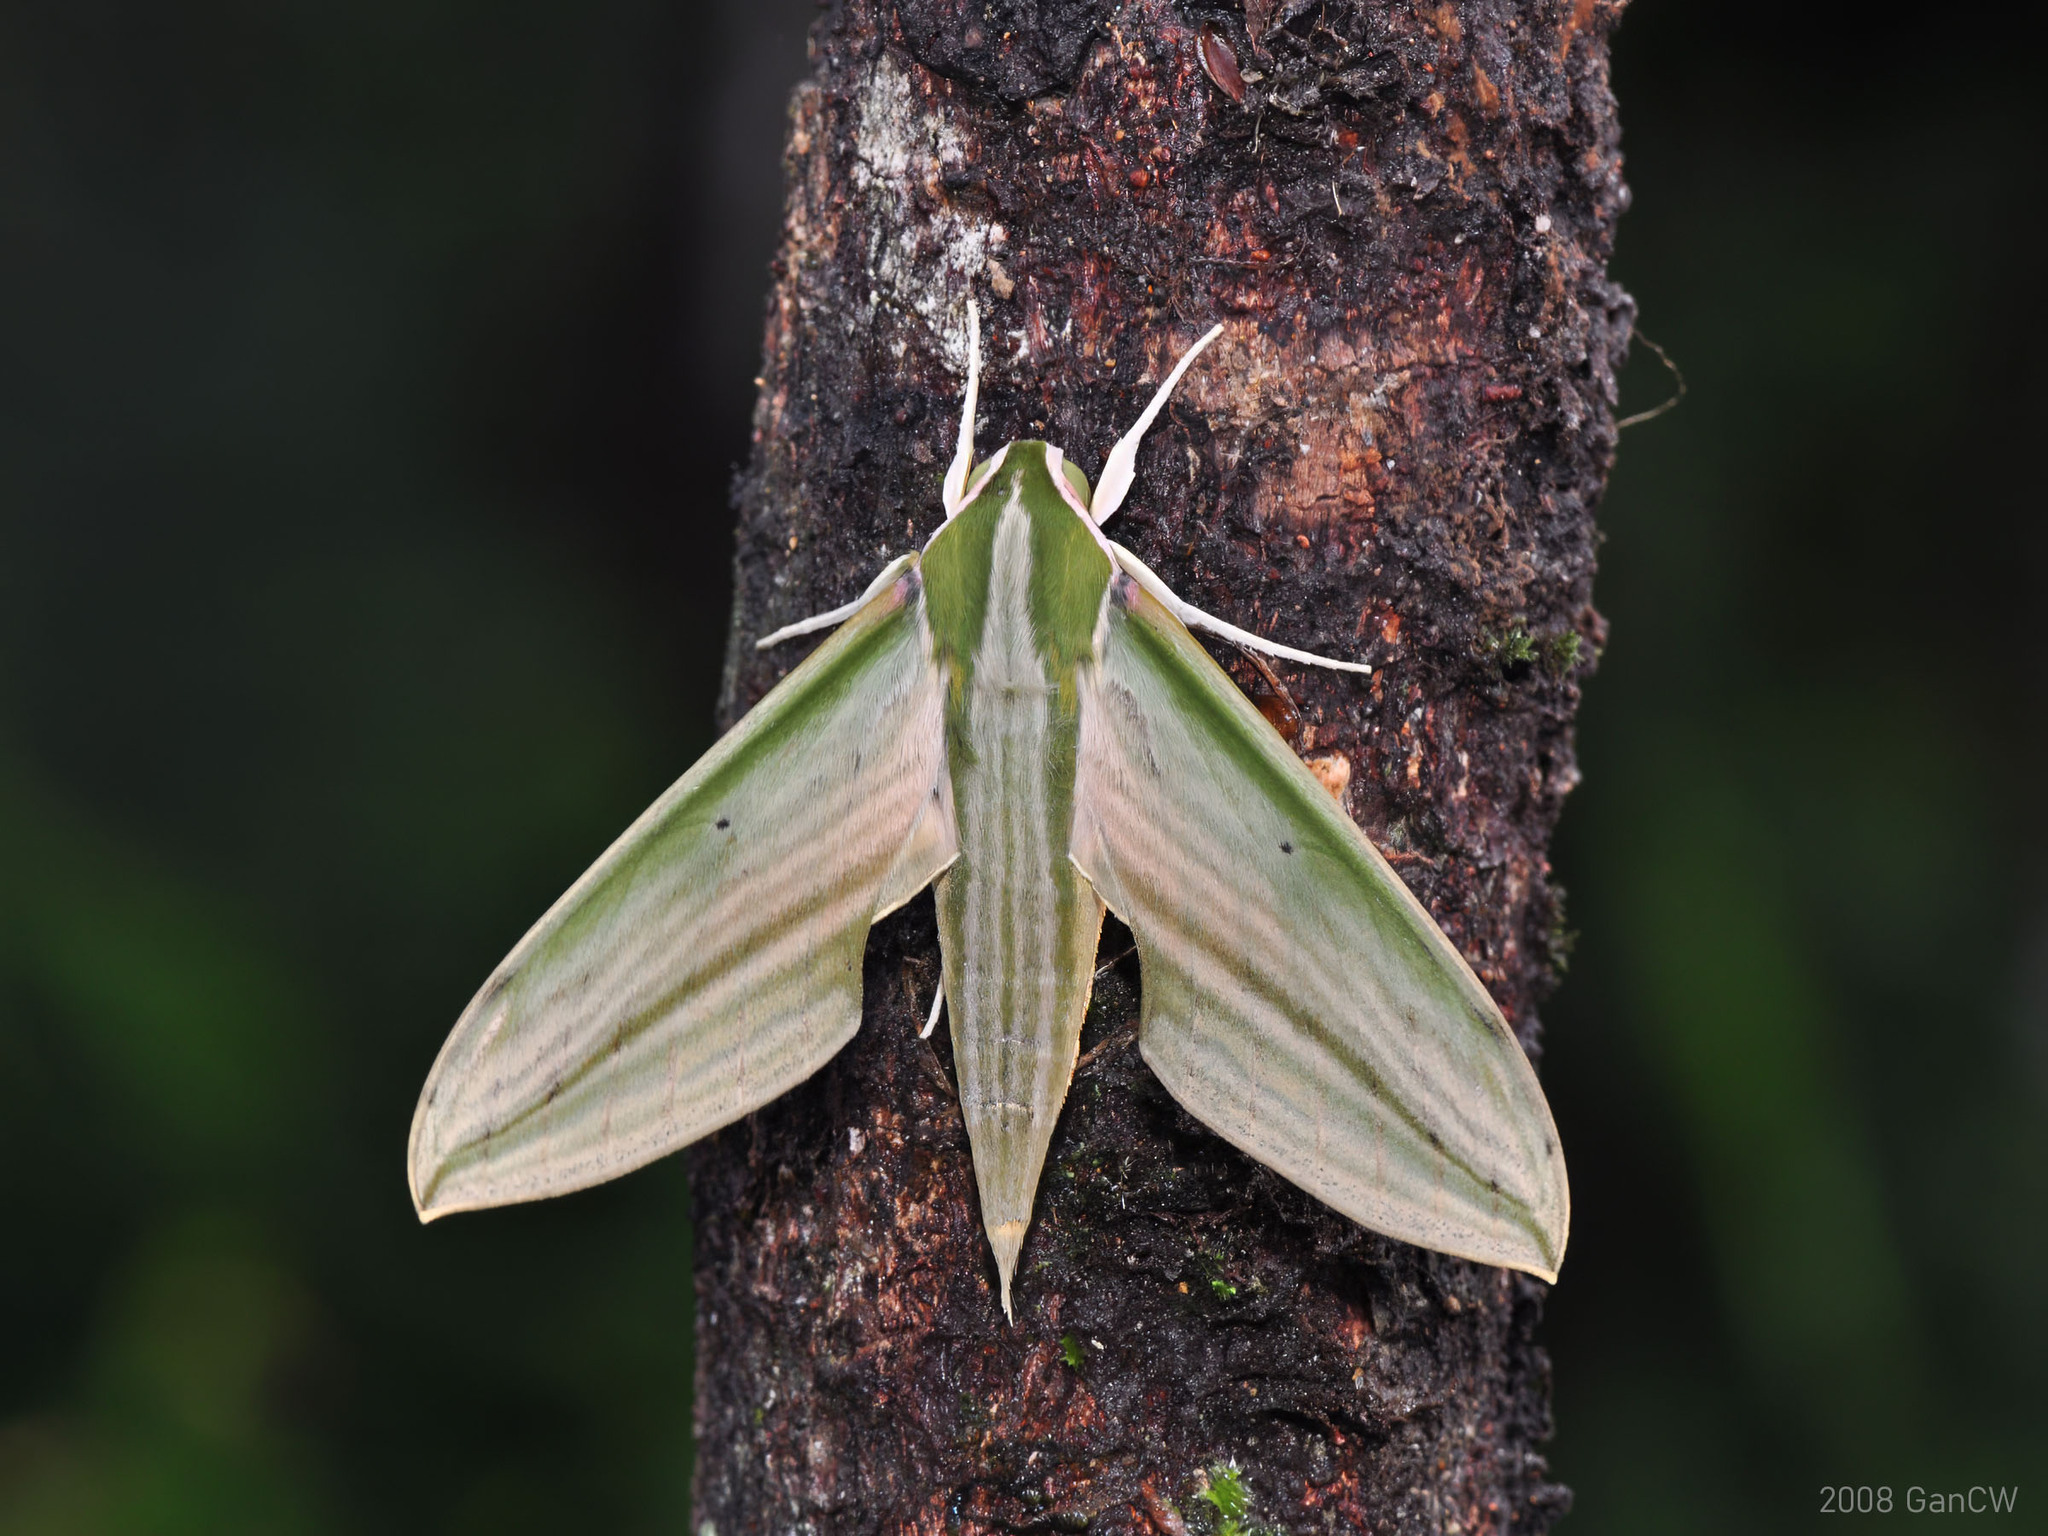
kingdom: Animalia
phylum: Arthropoda
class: Insecta
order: Lepidoptera
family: Sphingidae
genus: Cechetra
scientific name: Cechetra lineosa
